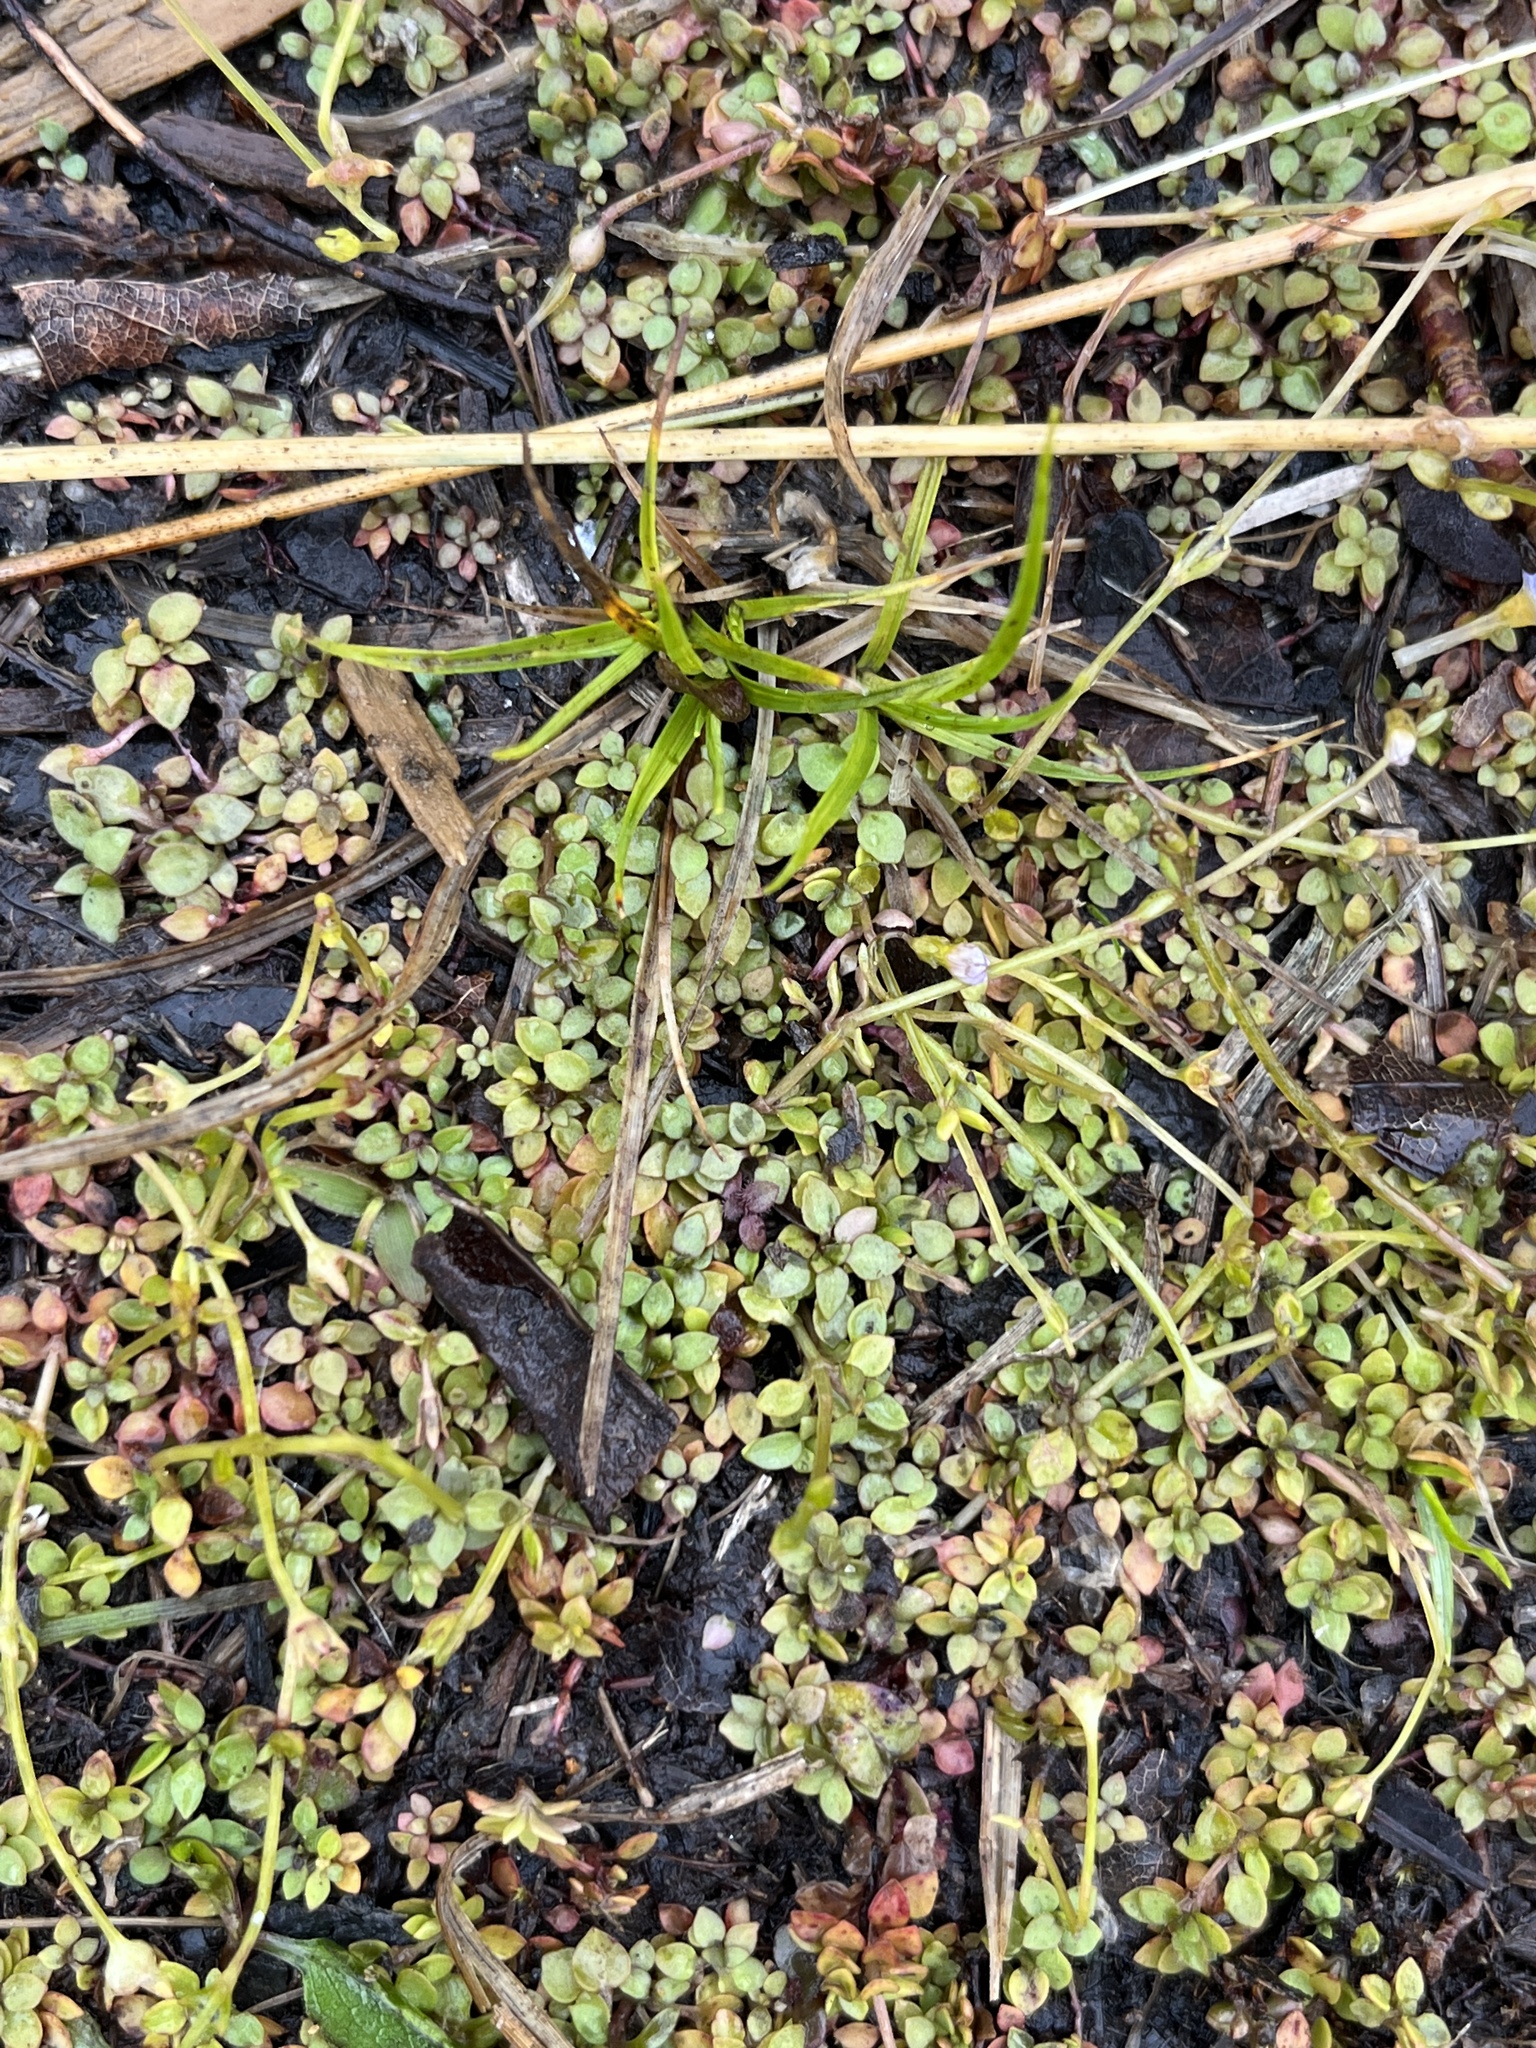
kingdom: Plantae
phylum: Tracheophyta
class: Magnoliopsida
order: Gentianales
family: Rubiaceae
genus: Houstonia
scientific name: Houstonia serpyllifolia
